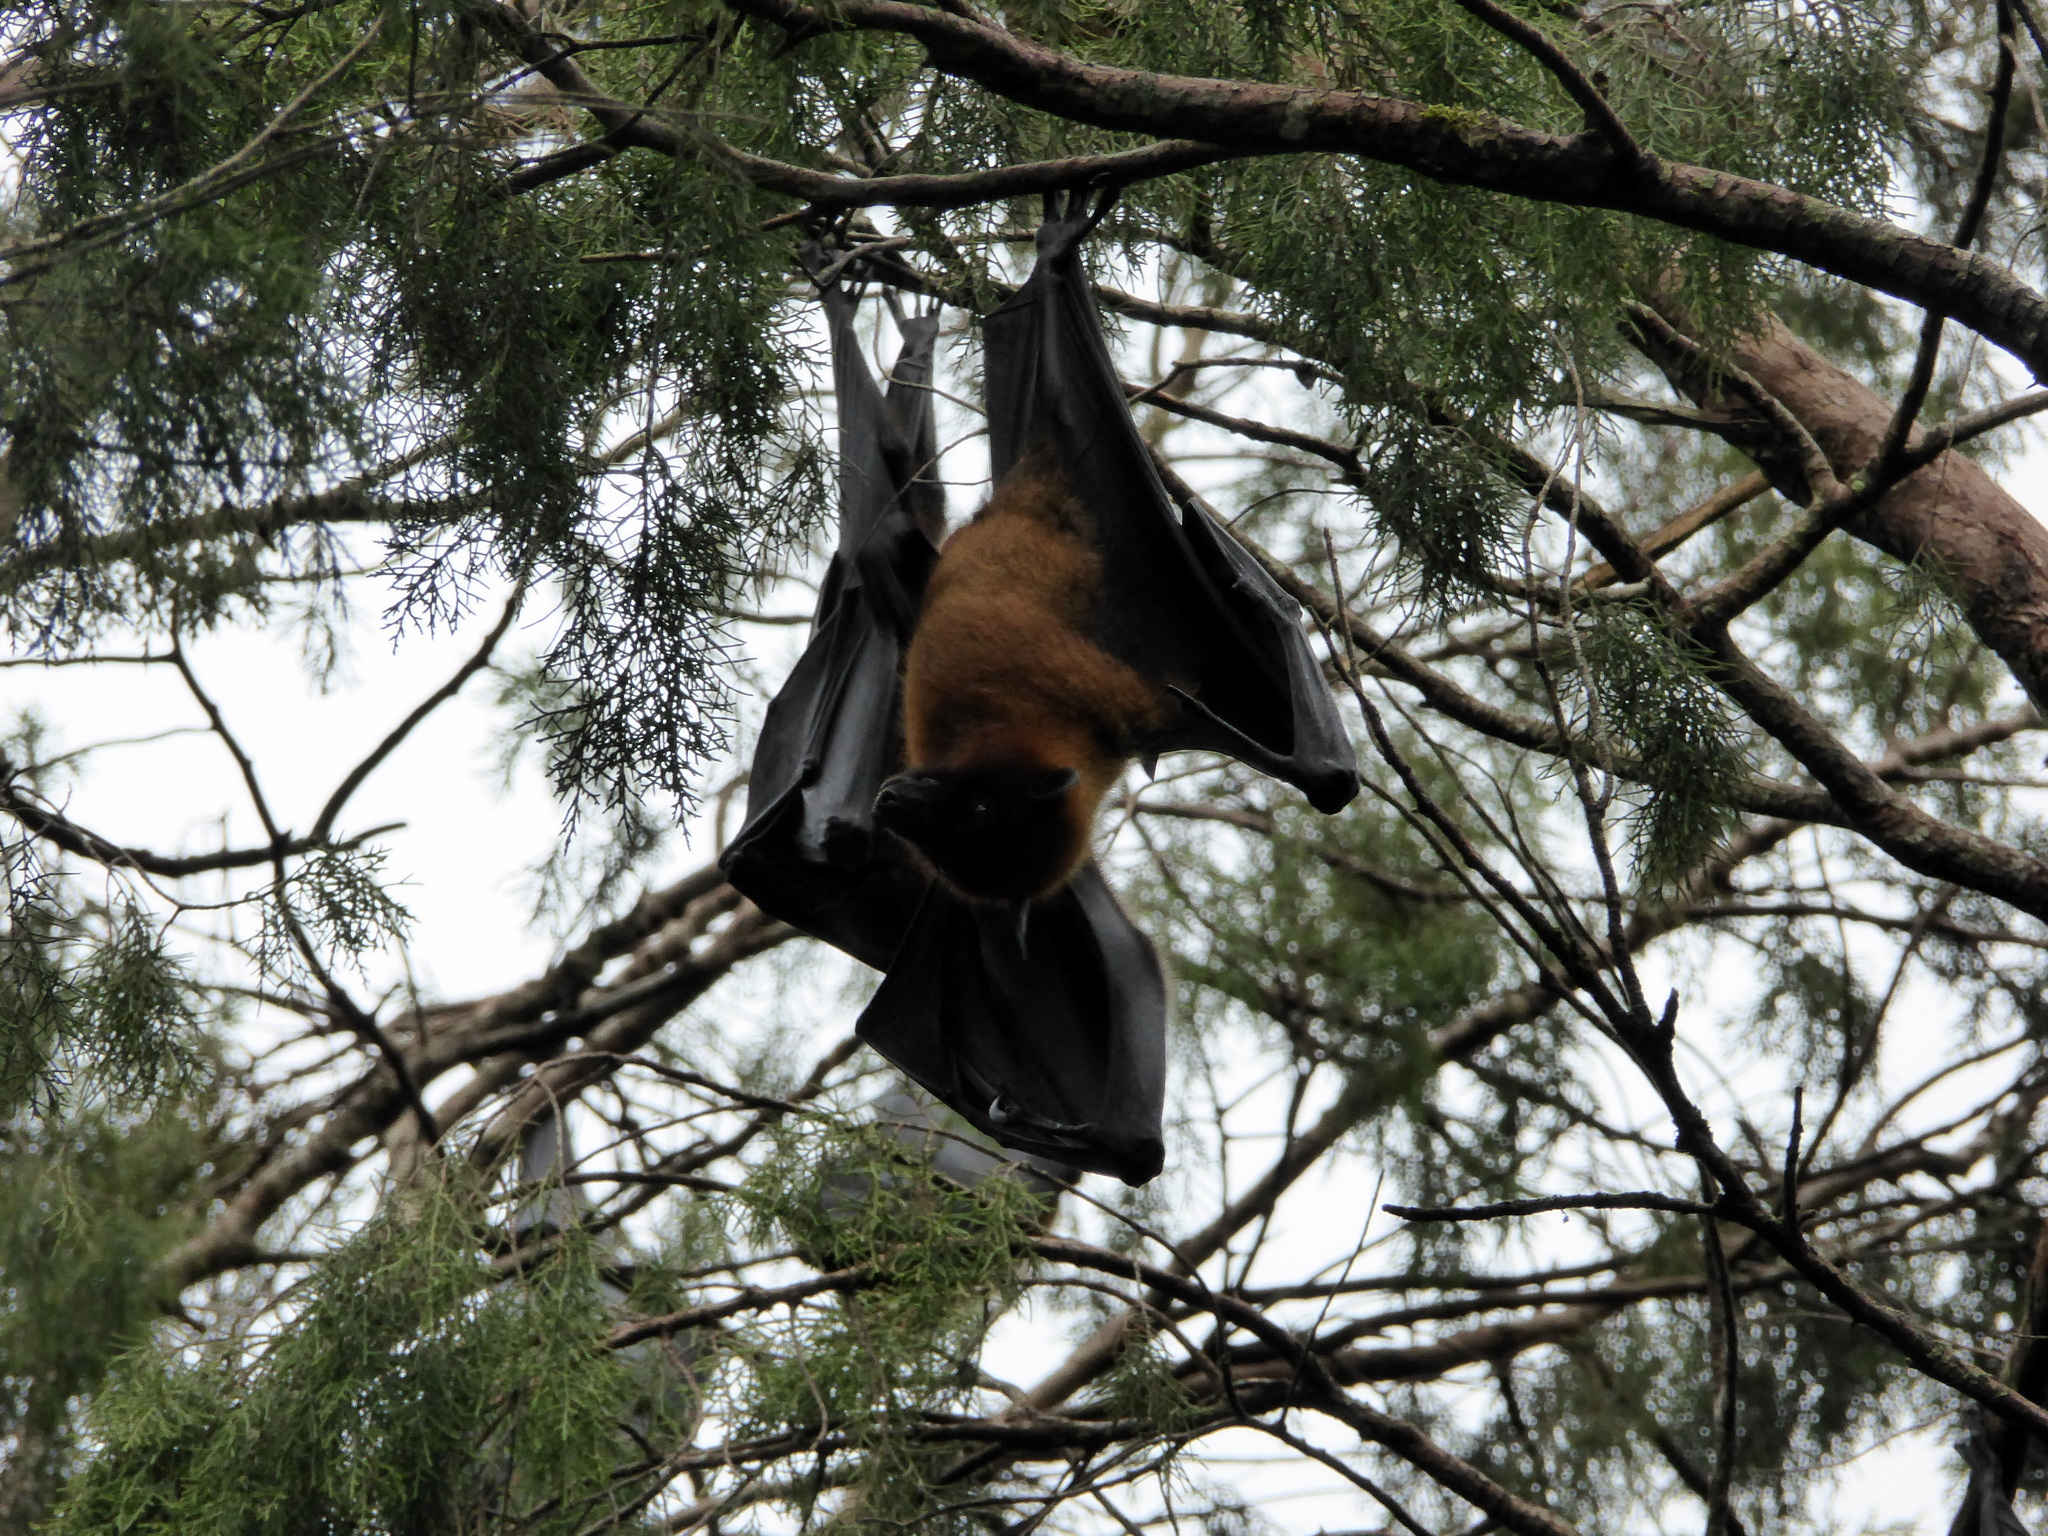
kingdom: Animalia
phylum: Chordata
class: Mammalia
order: Chiroptera
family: Pteropodidae
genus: Pteropus
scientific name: Pteropus vampyrus
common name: Large flying fox
